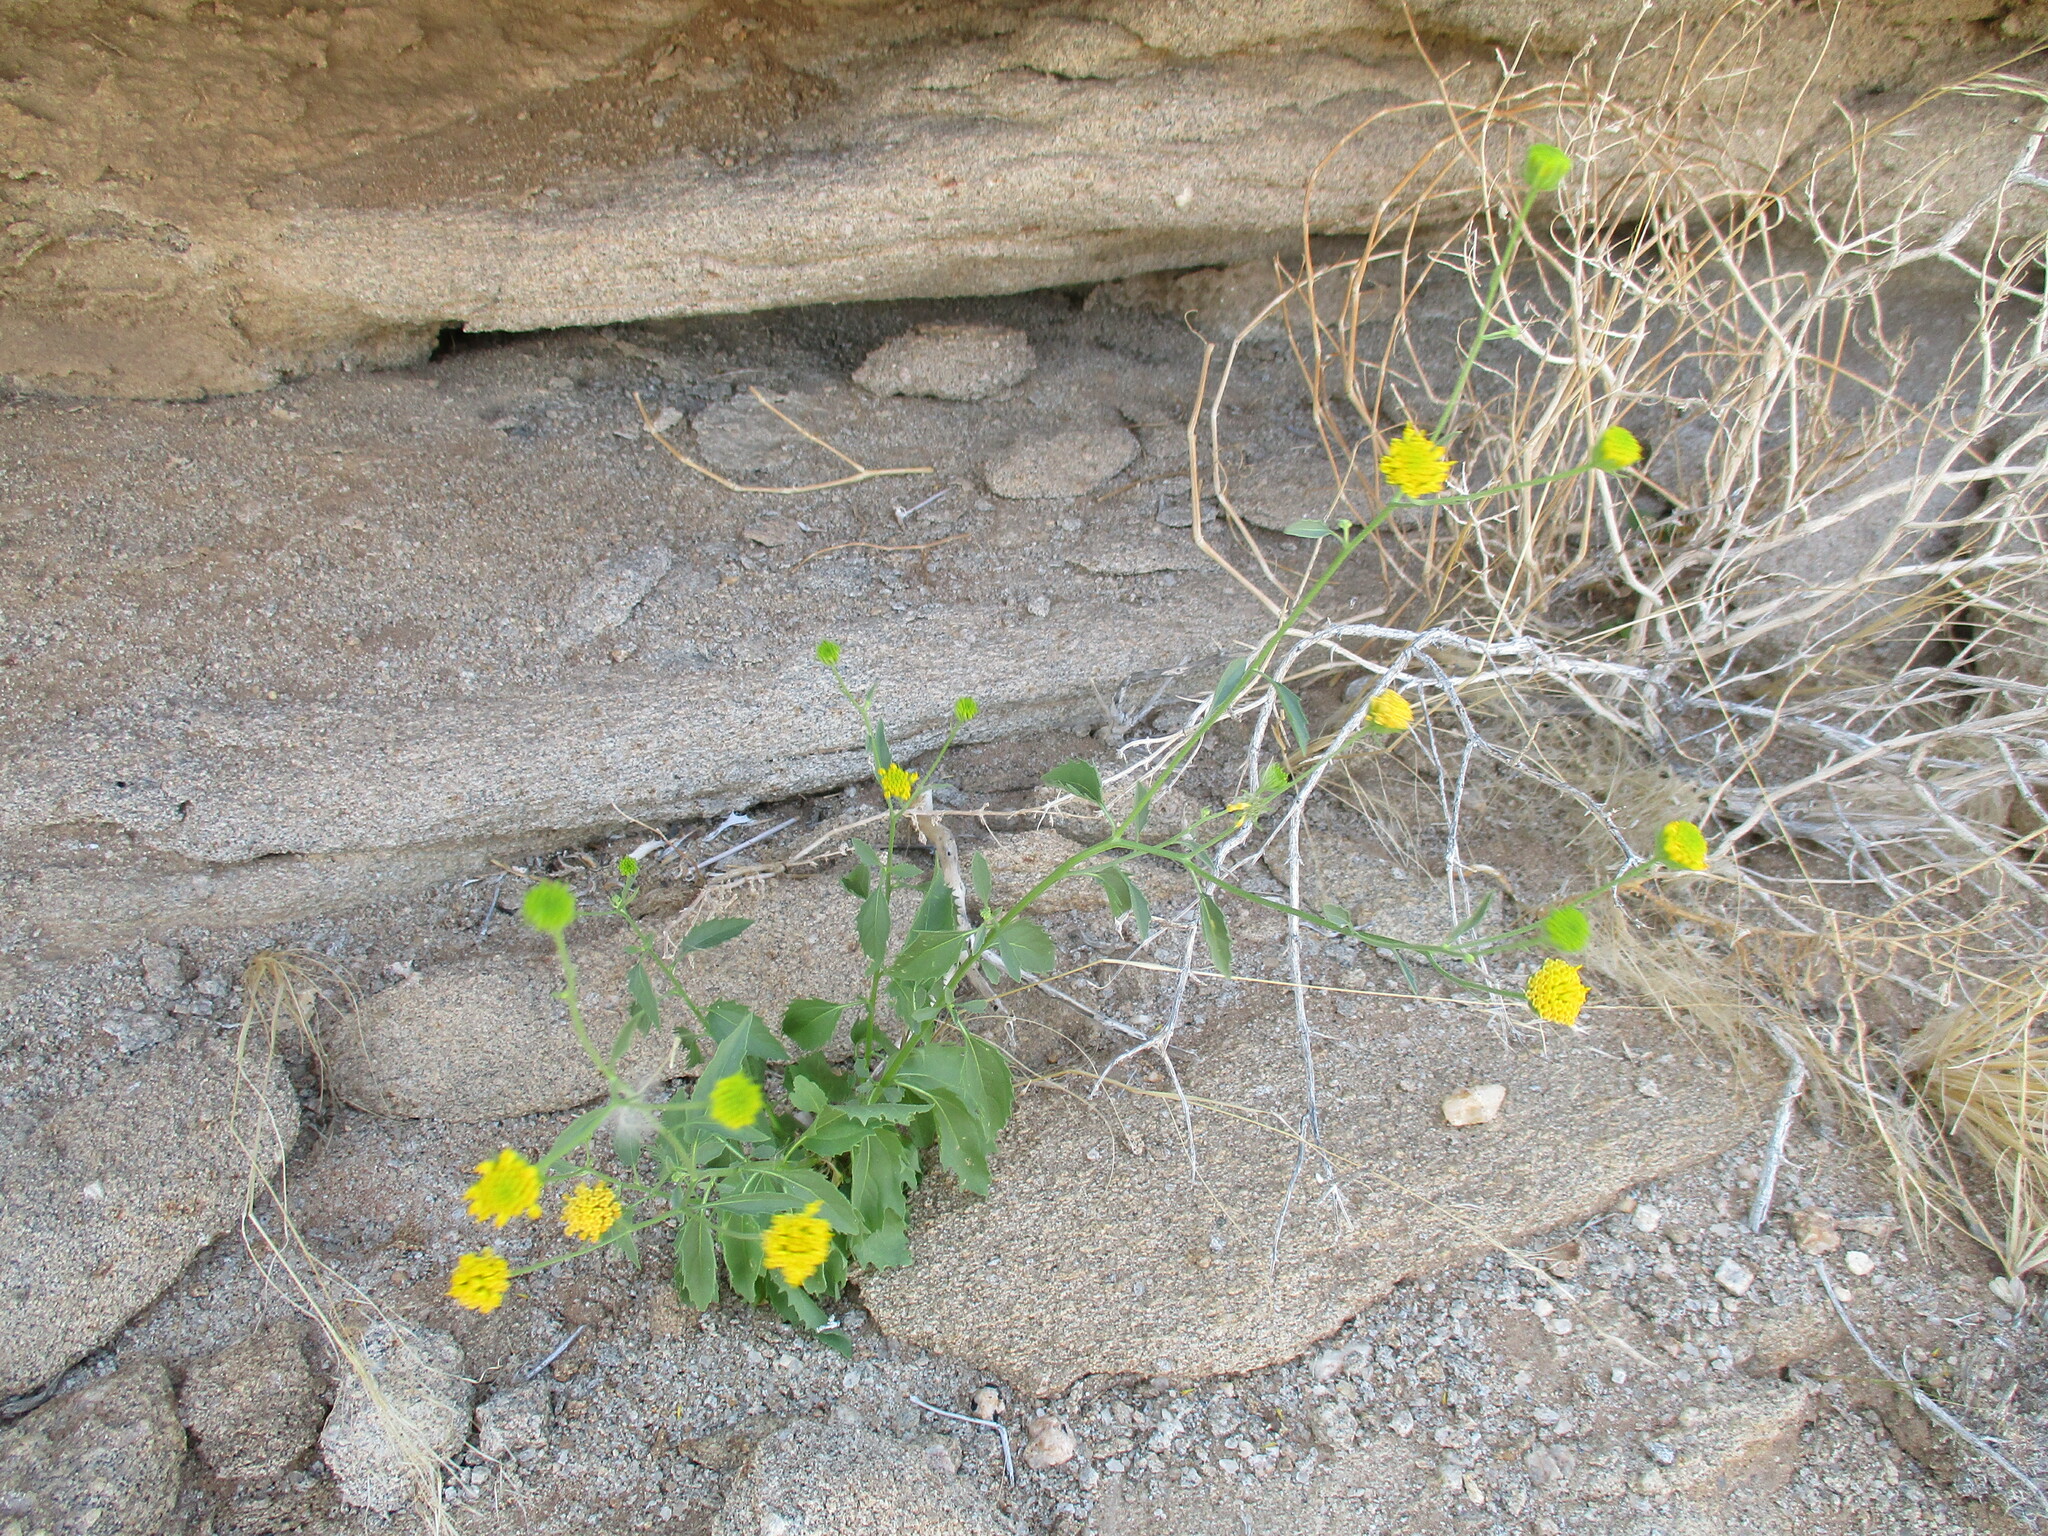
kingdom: Plantae
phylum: Tracheophyta
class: Magnoliopsida
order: Asterales
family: Asteraceae
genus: Calostephane
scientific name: Calostephane marlothiana
